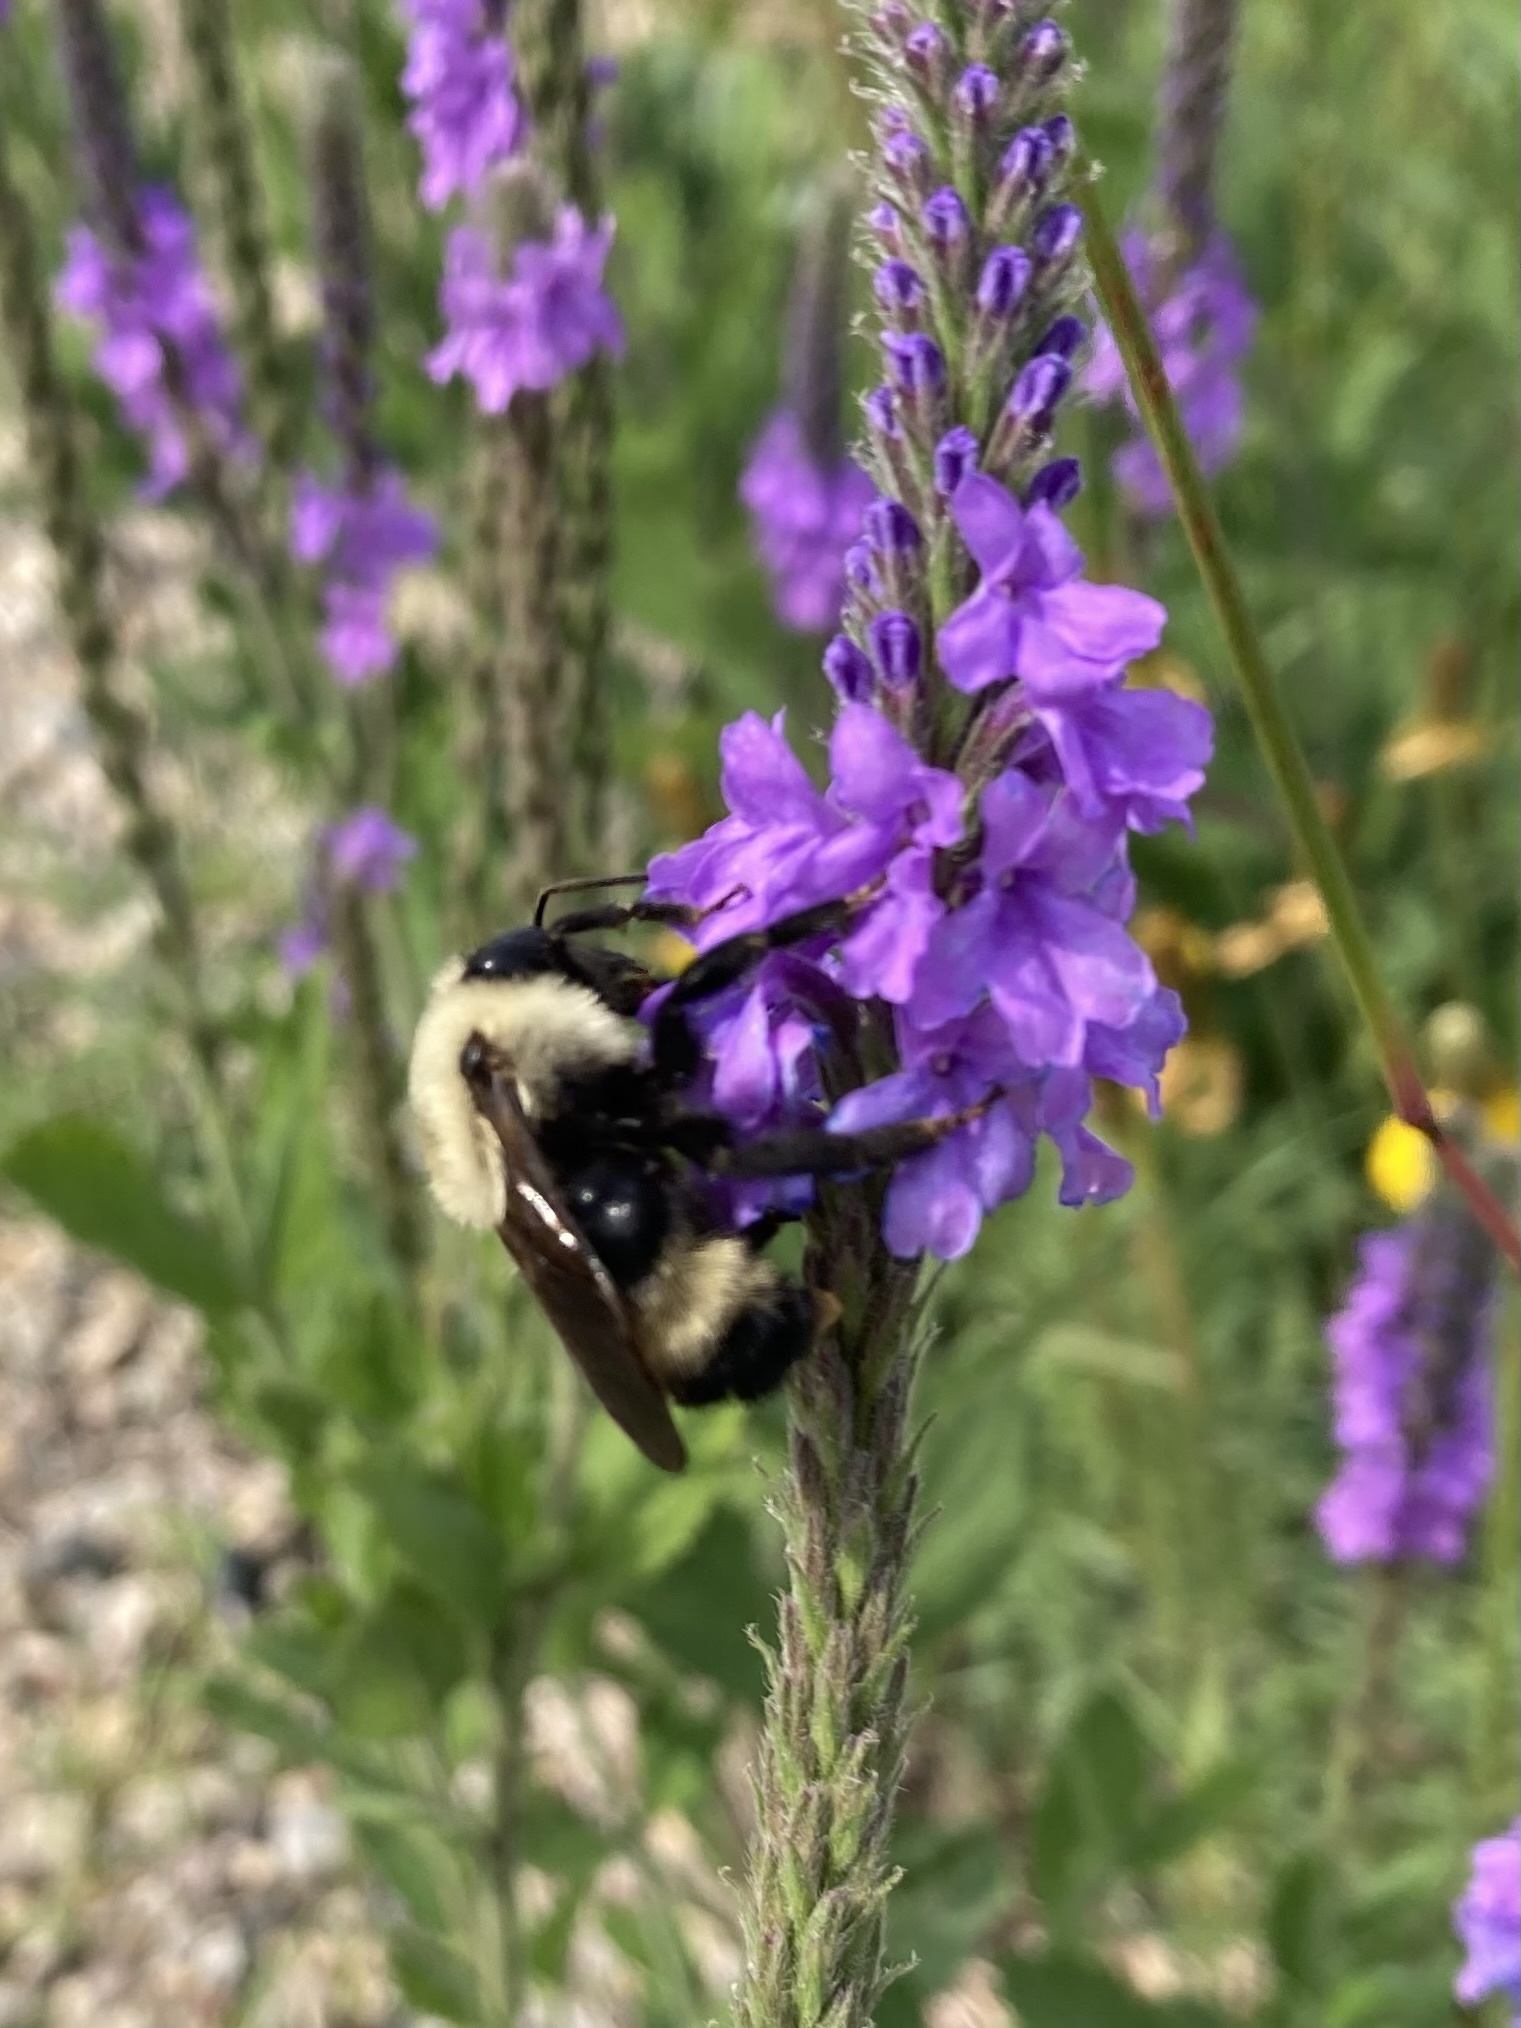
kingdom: Animalia
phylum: Arthropoda
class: Insecta
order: Hymenoptera
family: Apidae
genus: Bombus
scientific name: Bombus citrinus
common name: Lemon cuckoo bumble bee
